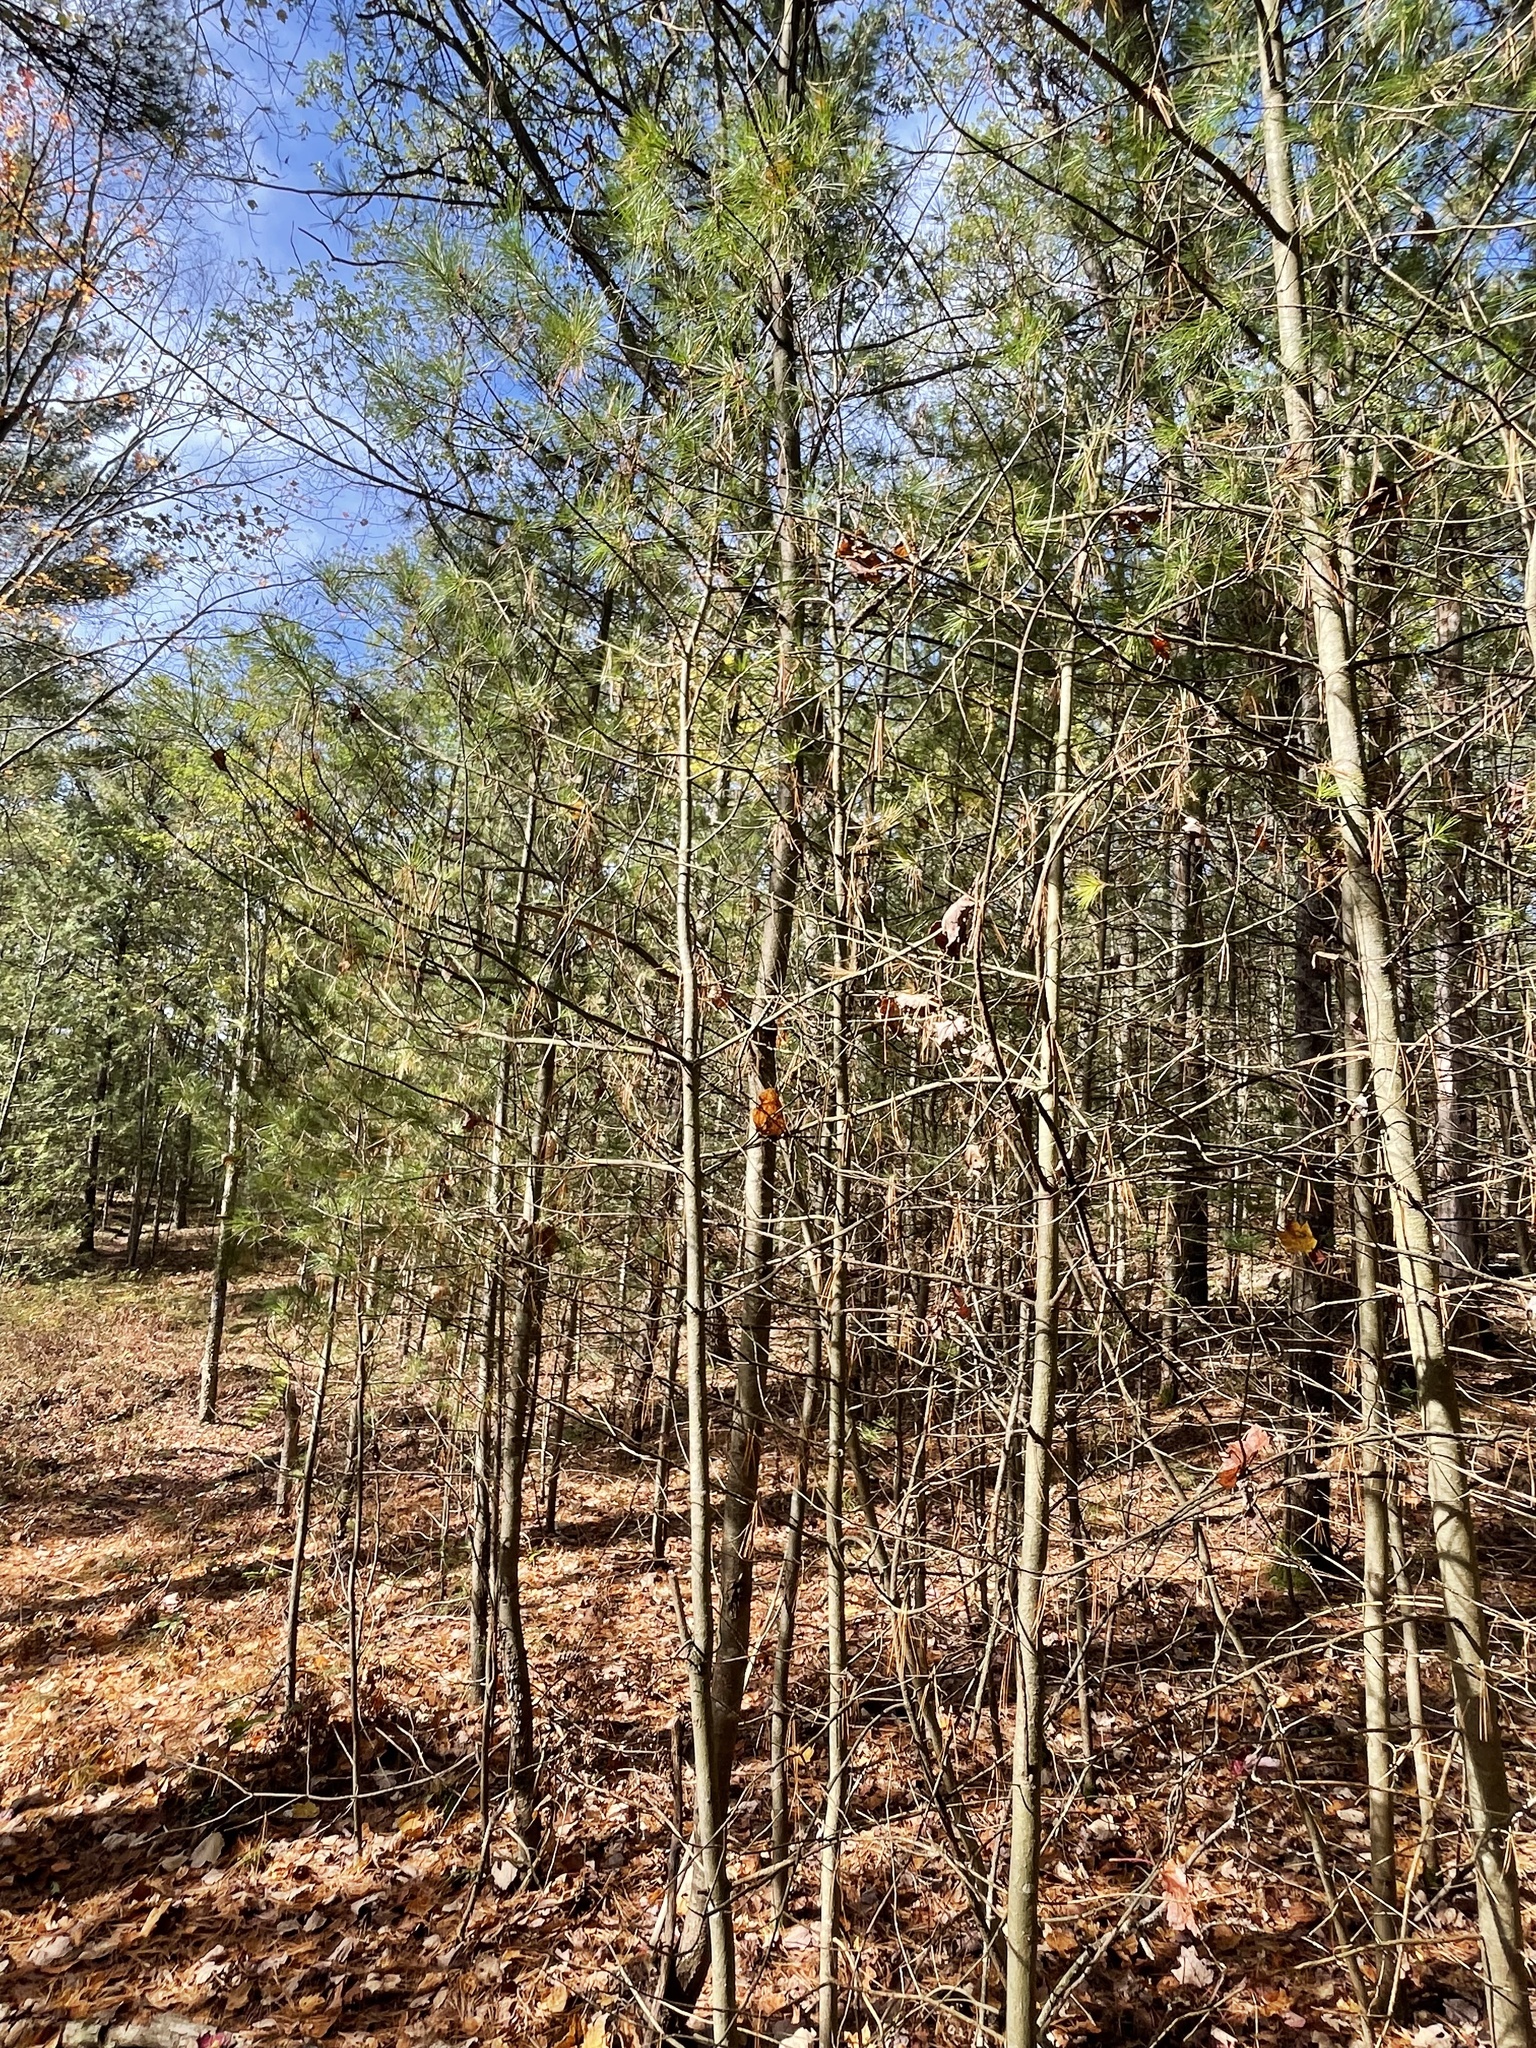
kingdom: Plantae
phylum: Tracheophyta
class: Pinopsida
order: Pinales
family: Pinaceae
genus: Pinus
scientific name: Pinus strobus
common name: Weymouth pine
